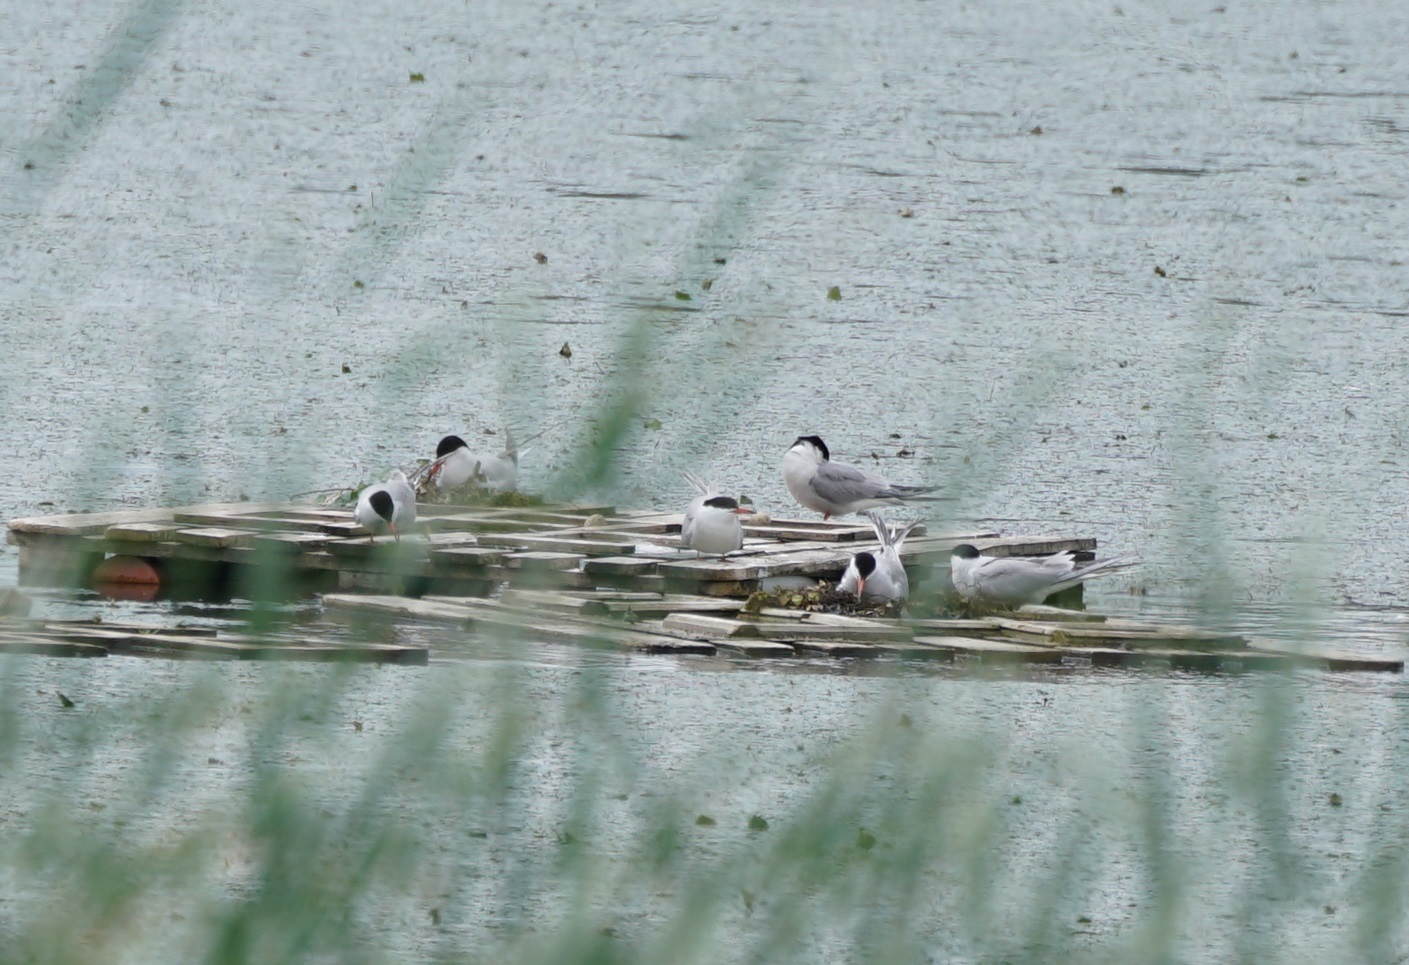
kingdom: Animalia
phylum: Chordata
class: Aves
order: Charadriiformes
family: Laridae
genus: Sterna
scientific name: Sterna hirundo
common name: Common tern
